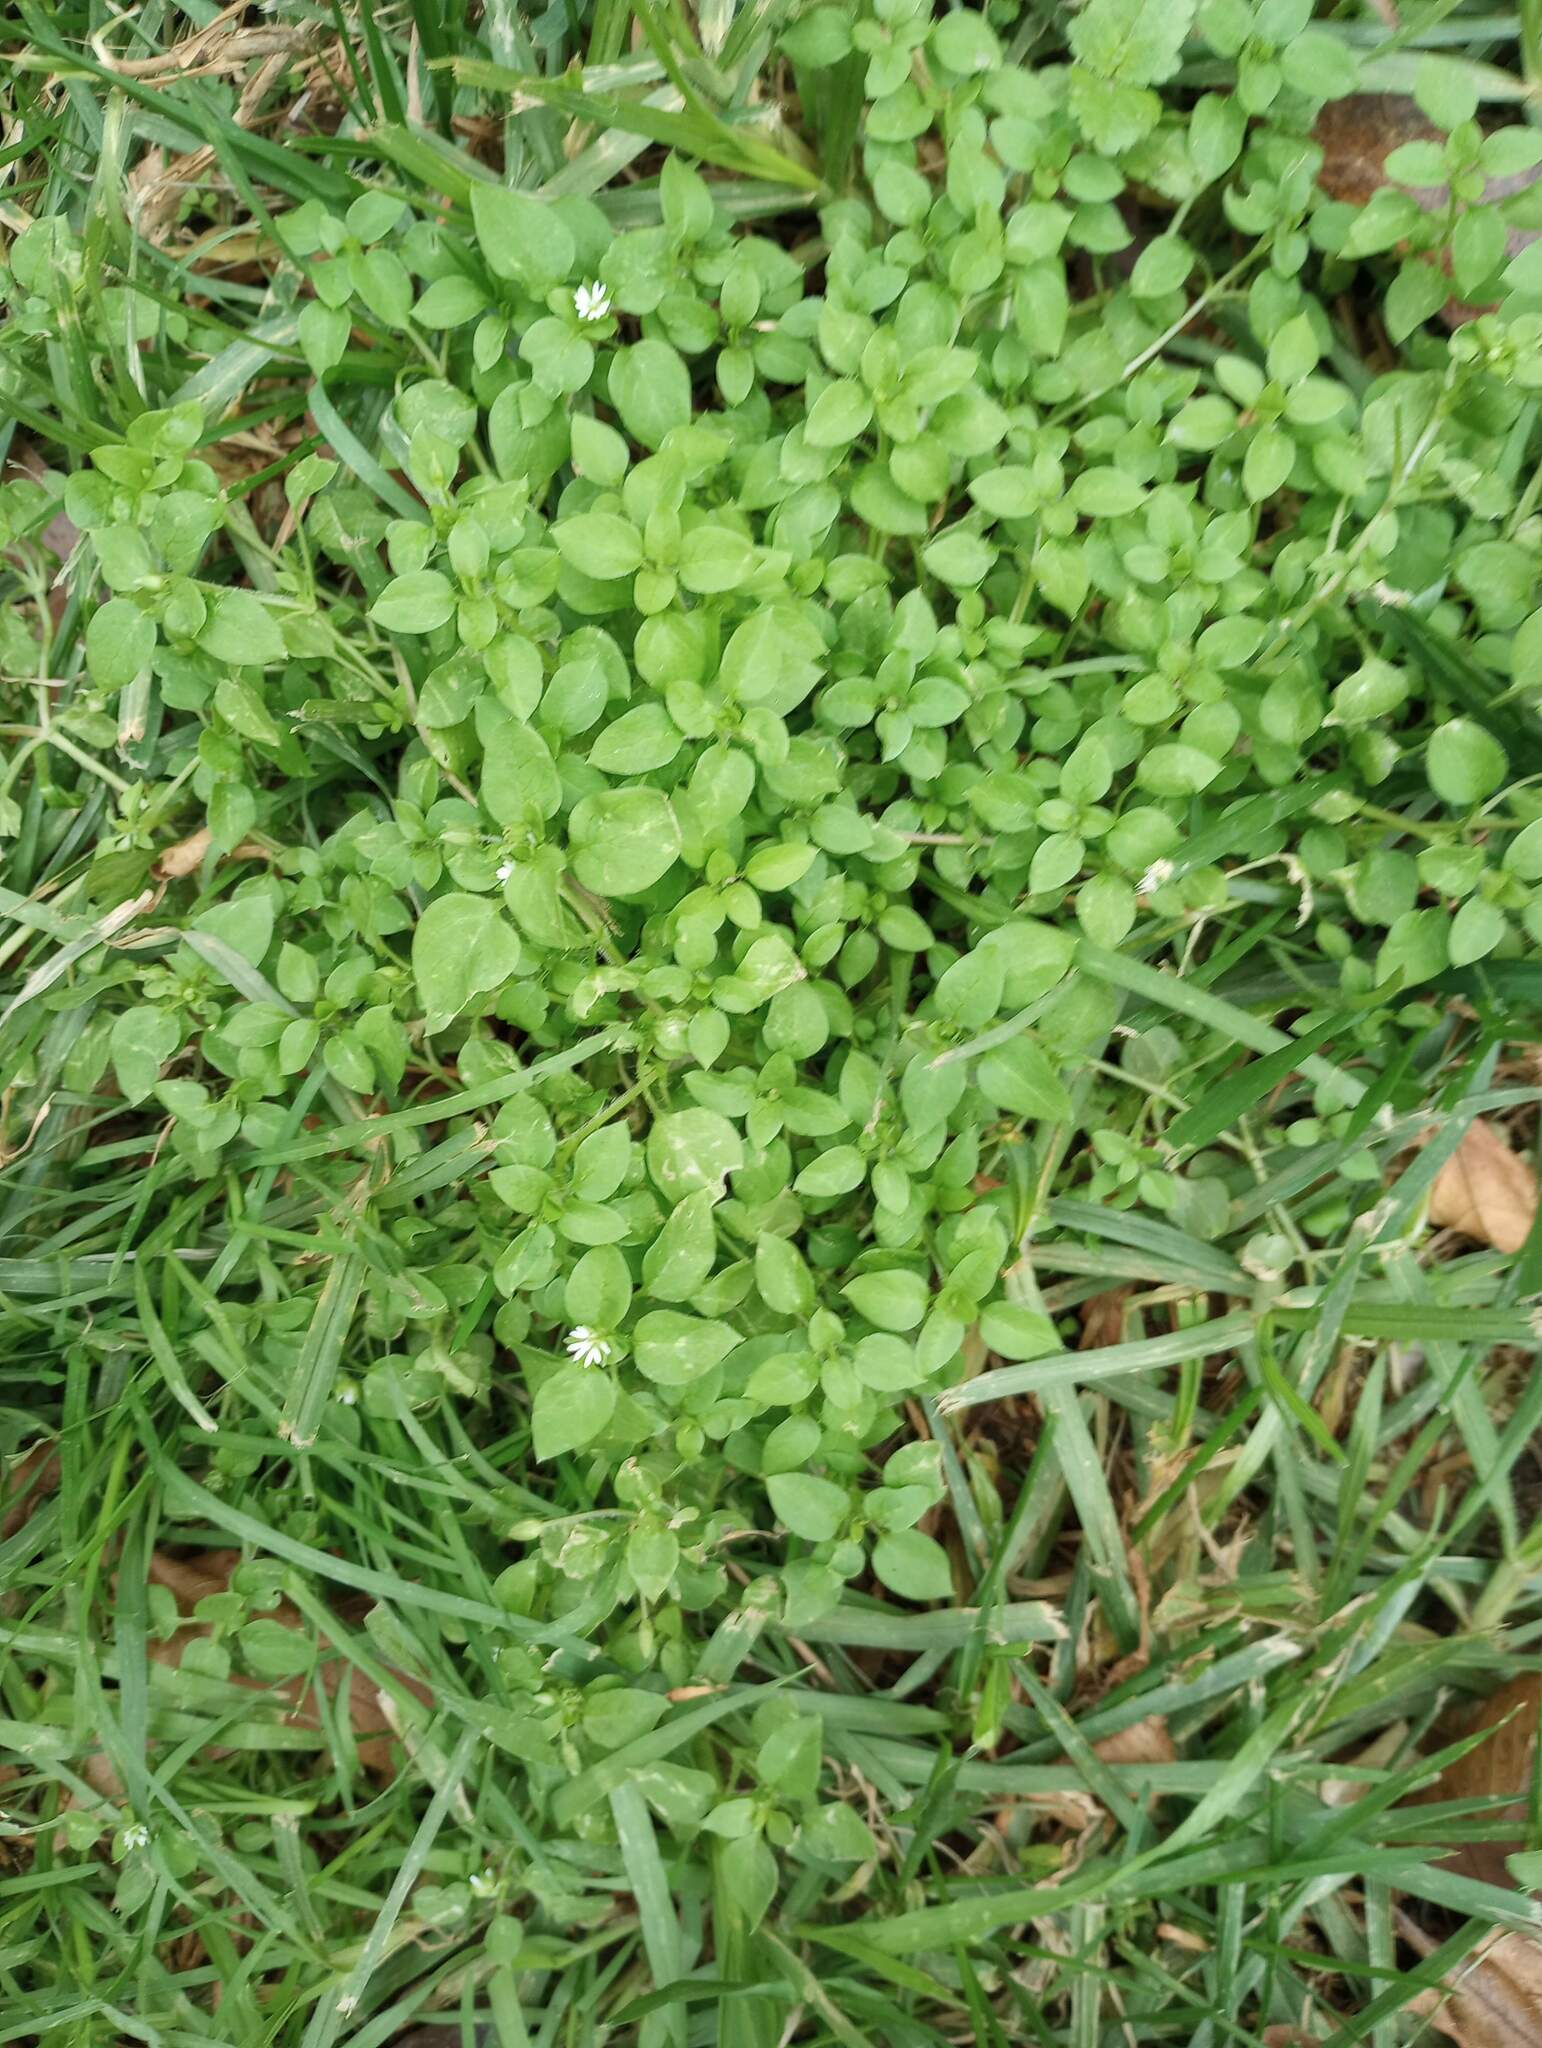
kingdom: Plantae
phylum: Tracheophyta
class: Magnoliopsida
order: Caryophyllales
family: Caryophyllaceae
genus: Stellaria
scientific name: Stellaria media
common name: Common chickweed
